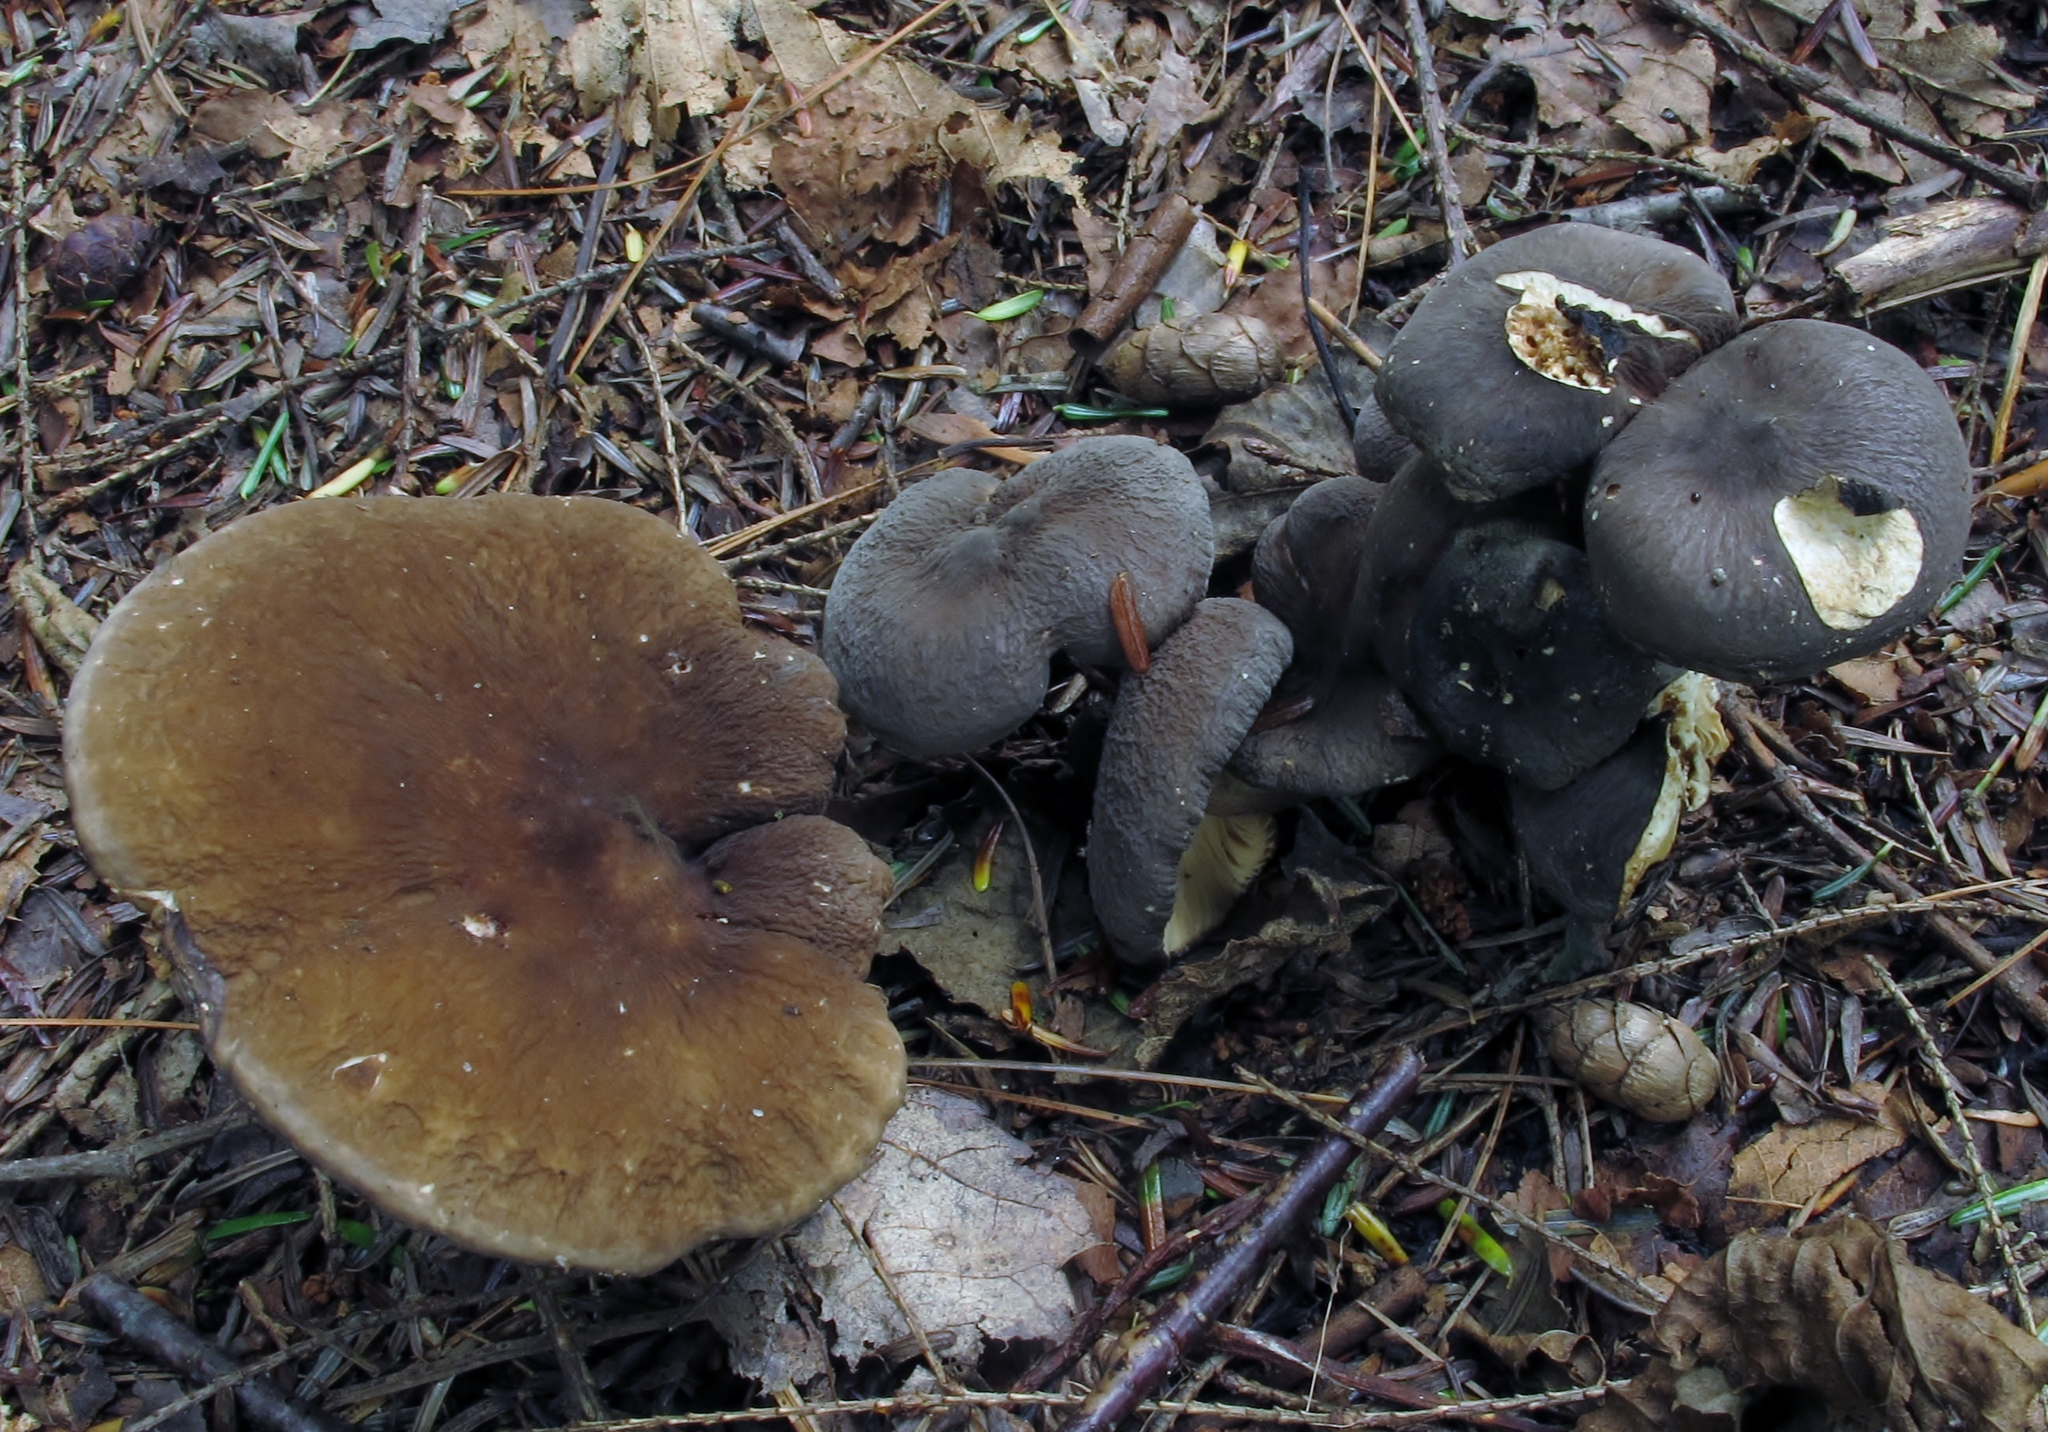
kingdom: Fungi
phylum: Basidiomycota
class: Agaricomycetes
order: Russulales
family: Russulaceae
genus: Lactarius
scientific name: Lactarius lignyotus
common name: Velvet milkcap
